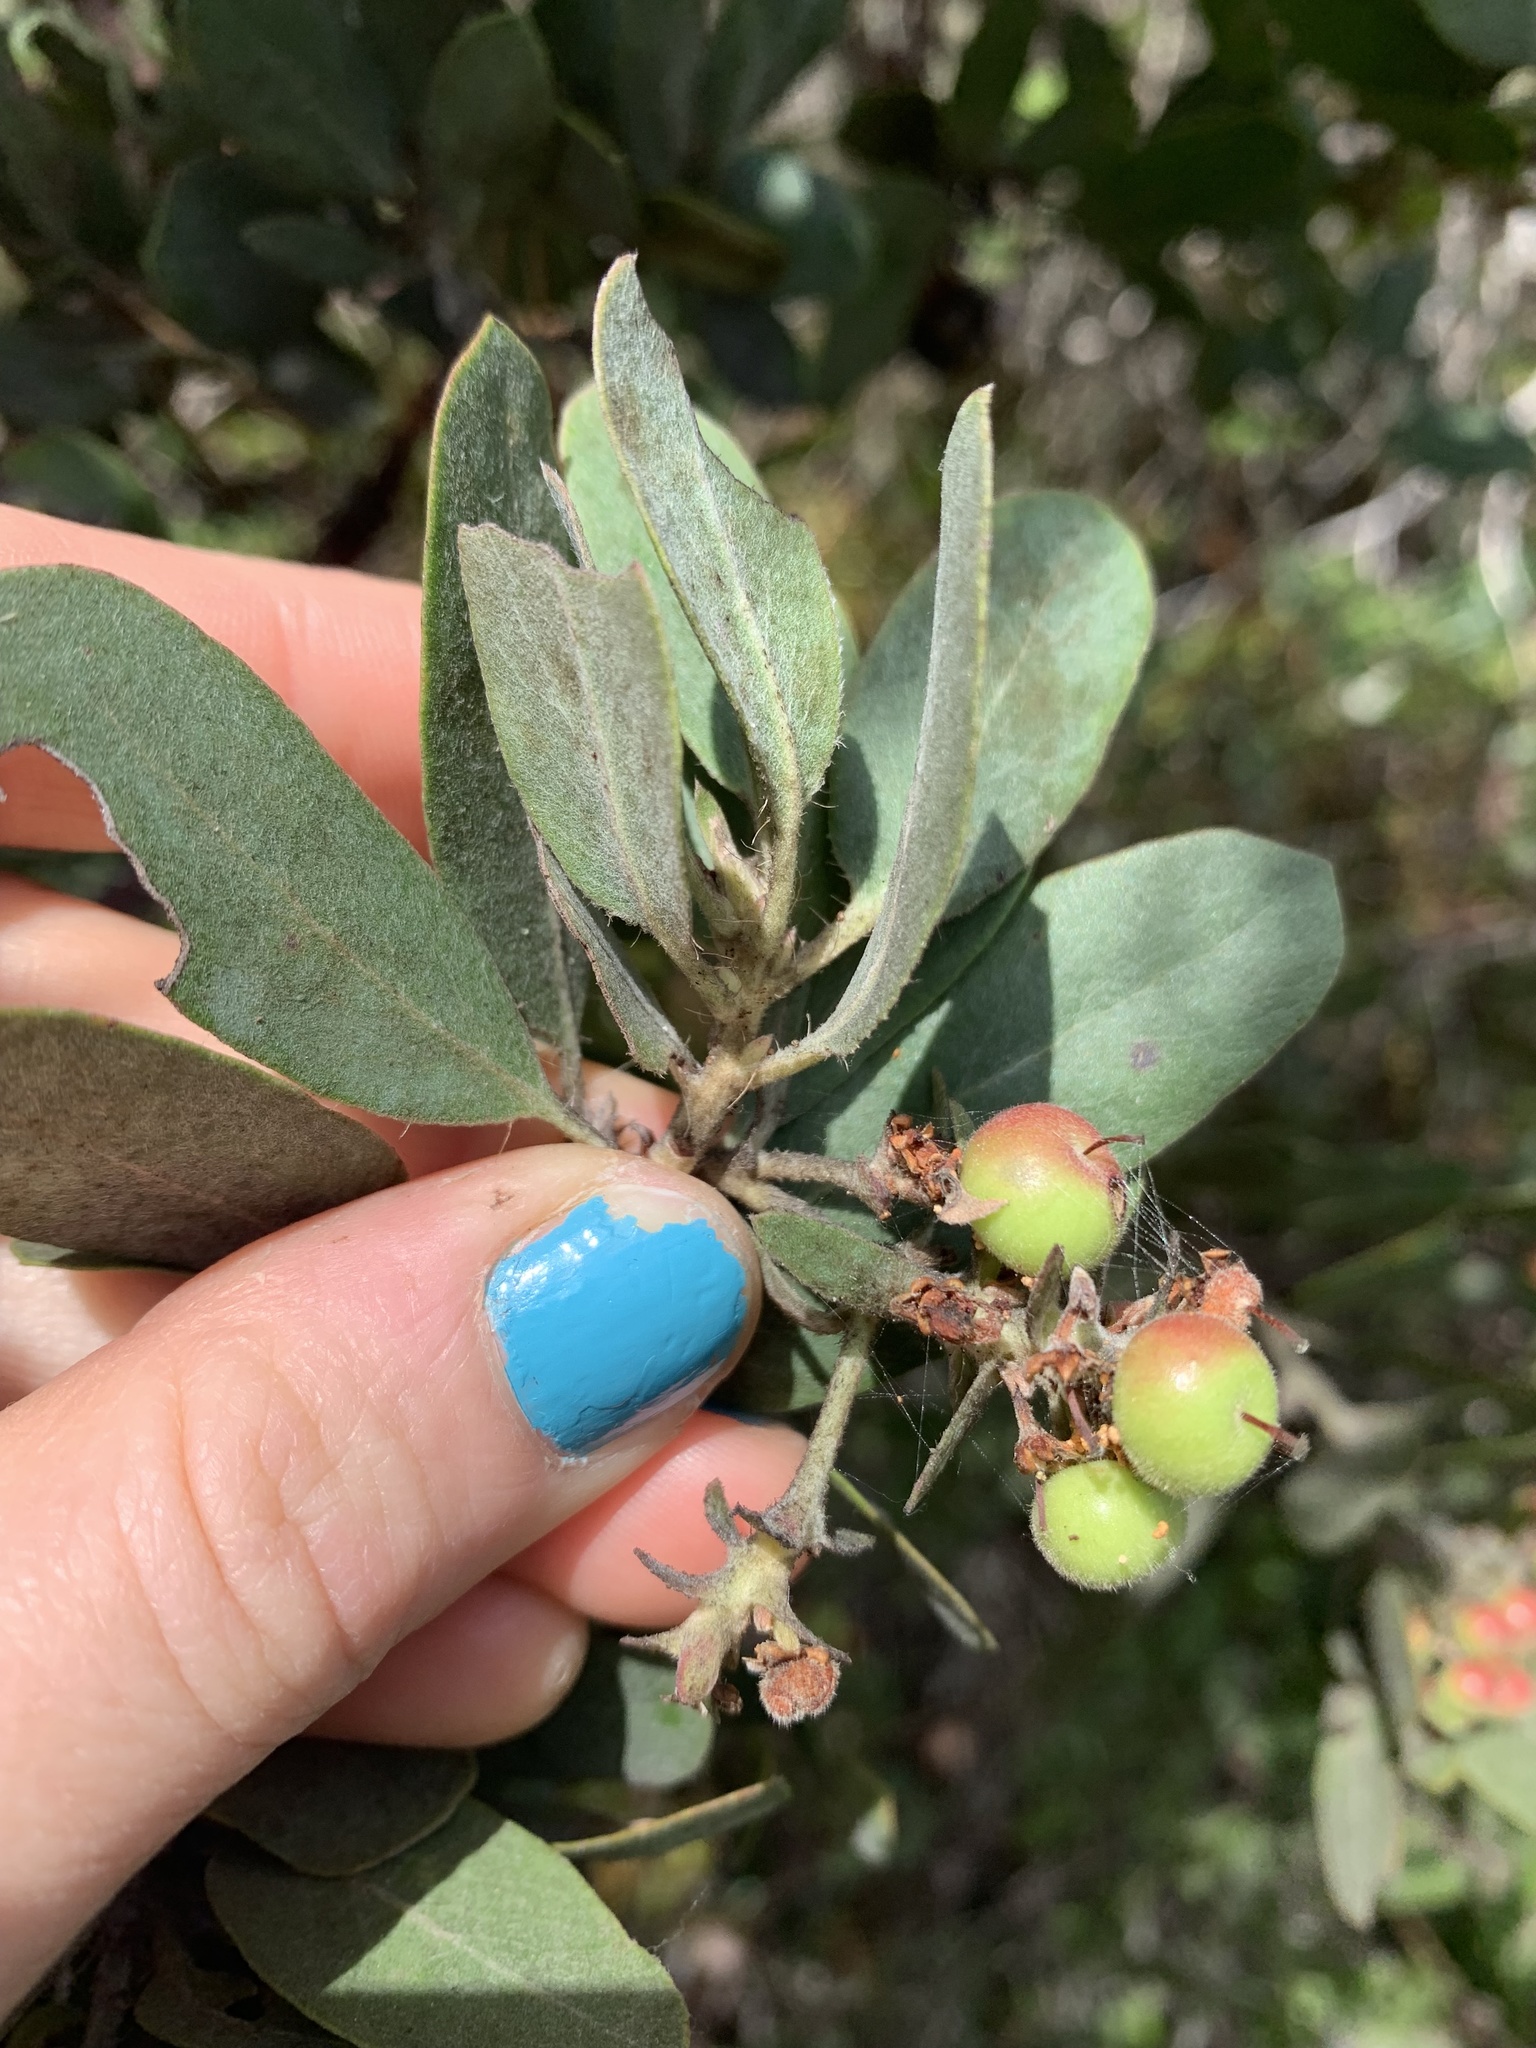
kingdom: Plantae
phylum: Tracheophyta
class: Magnoliopsida
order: Ericales
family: Ericaceae
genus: Arctostaphylos
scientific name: Arctostaphylos columbiana
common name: Bristly bearberry
